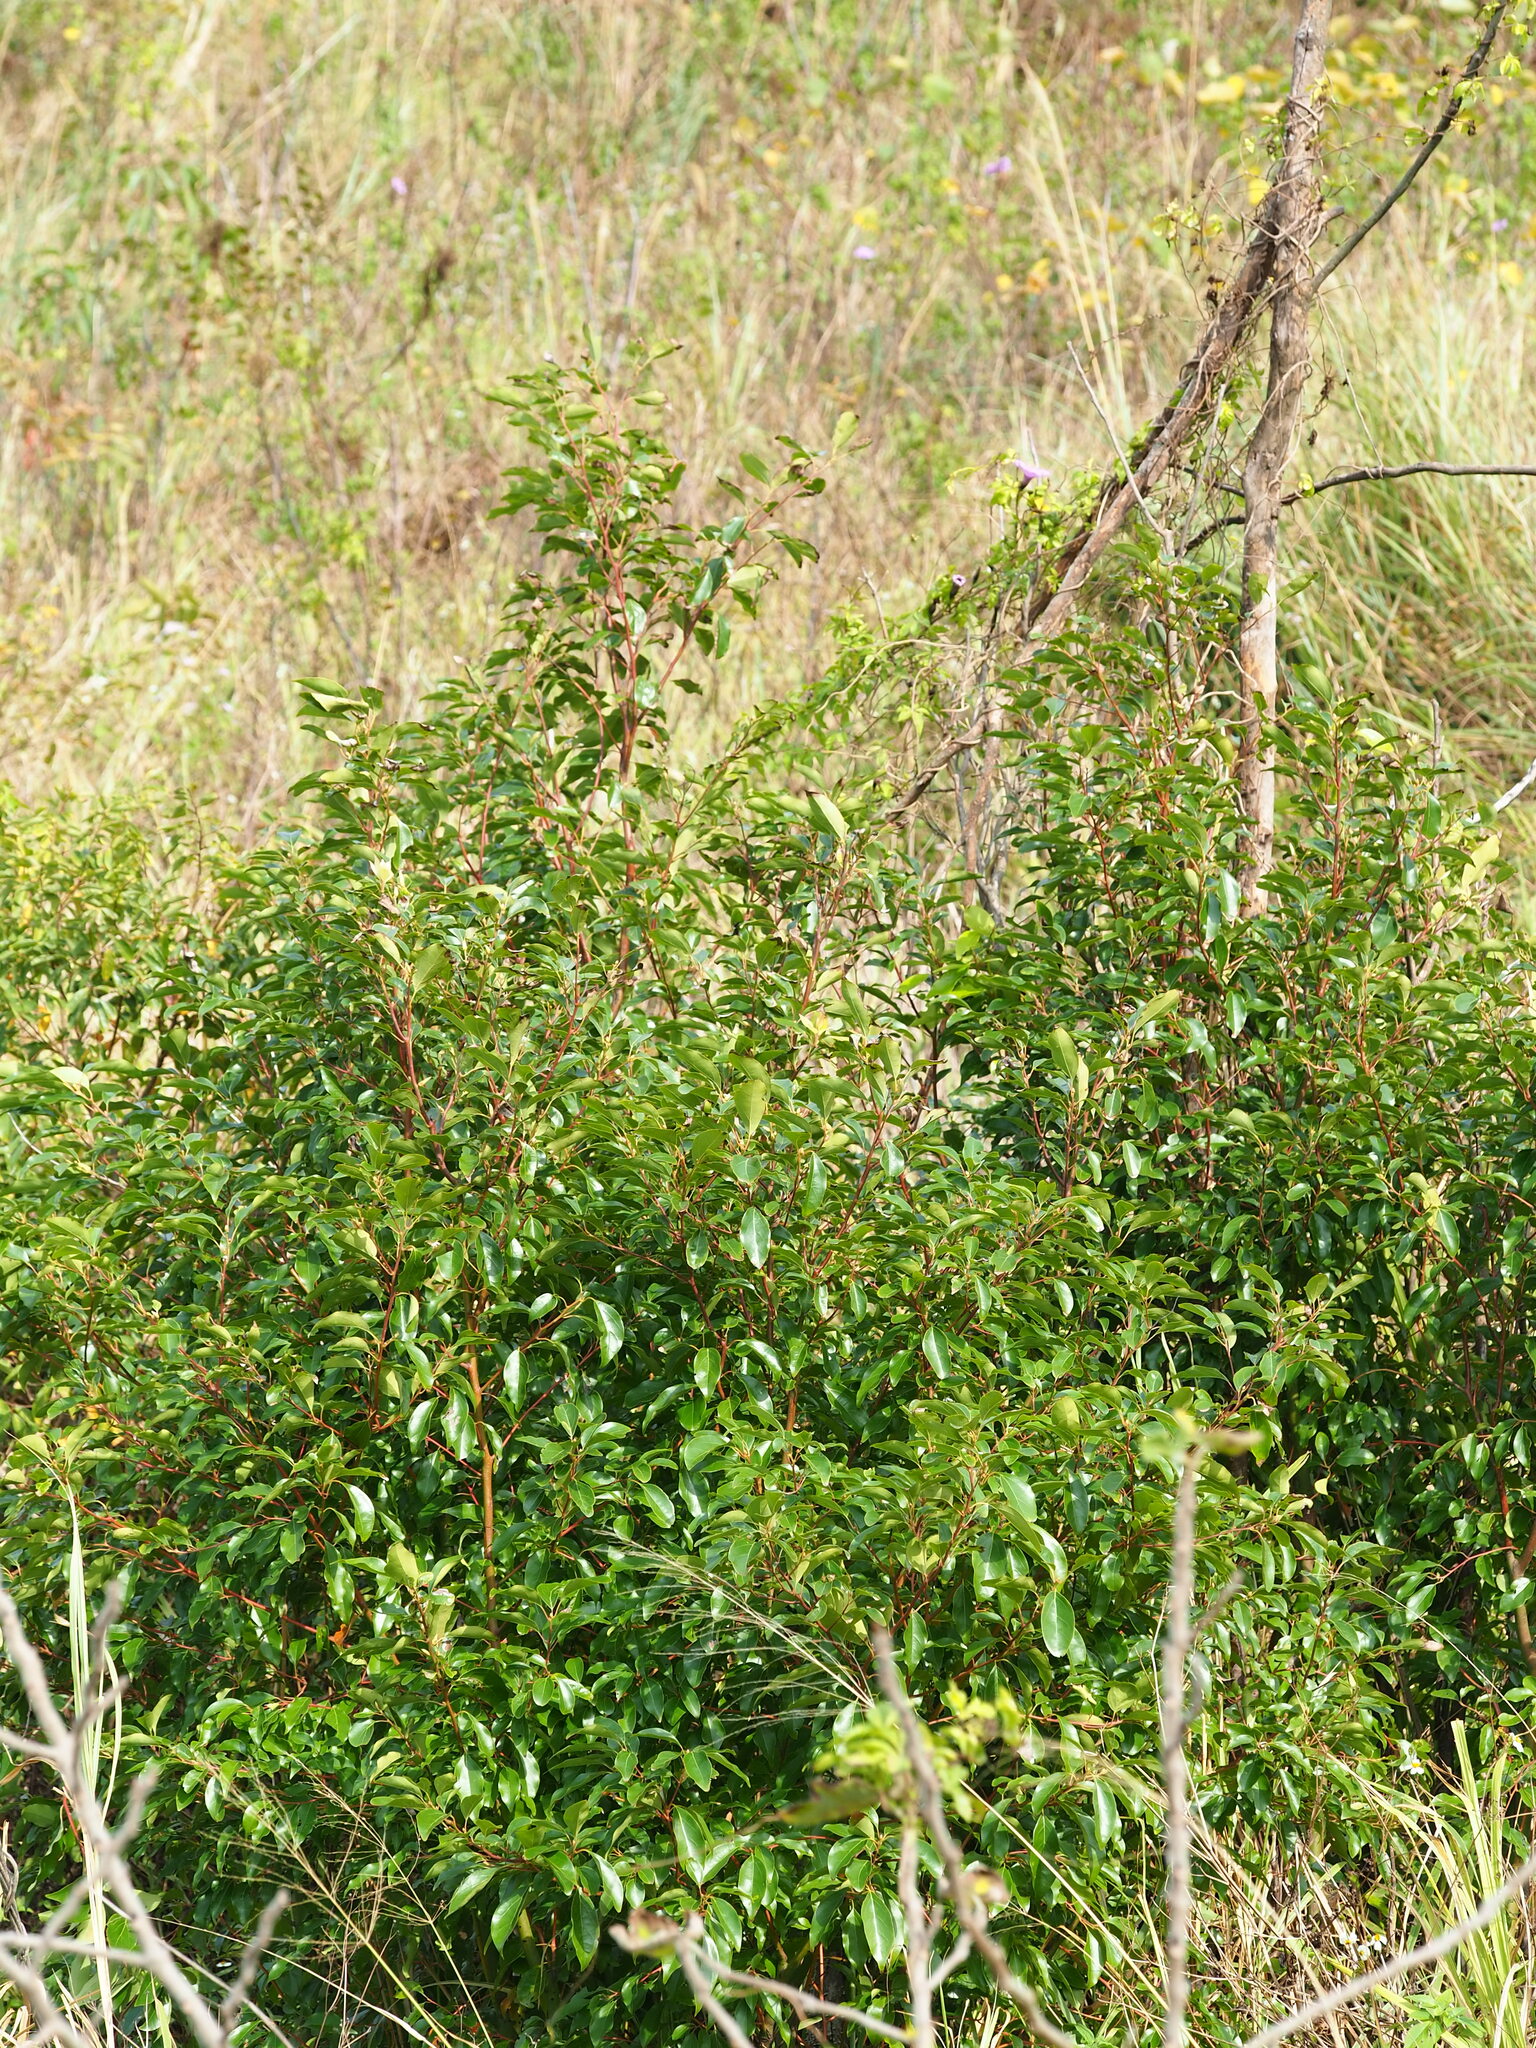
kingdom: Plantae
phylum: Tracheophyta
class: Magnoliopsida
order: Laurales
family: Lauraceae
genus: Cinnamomum
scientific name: Cinnamomum camphora
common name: Camphortree
